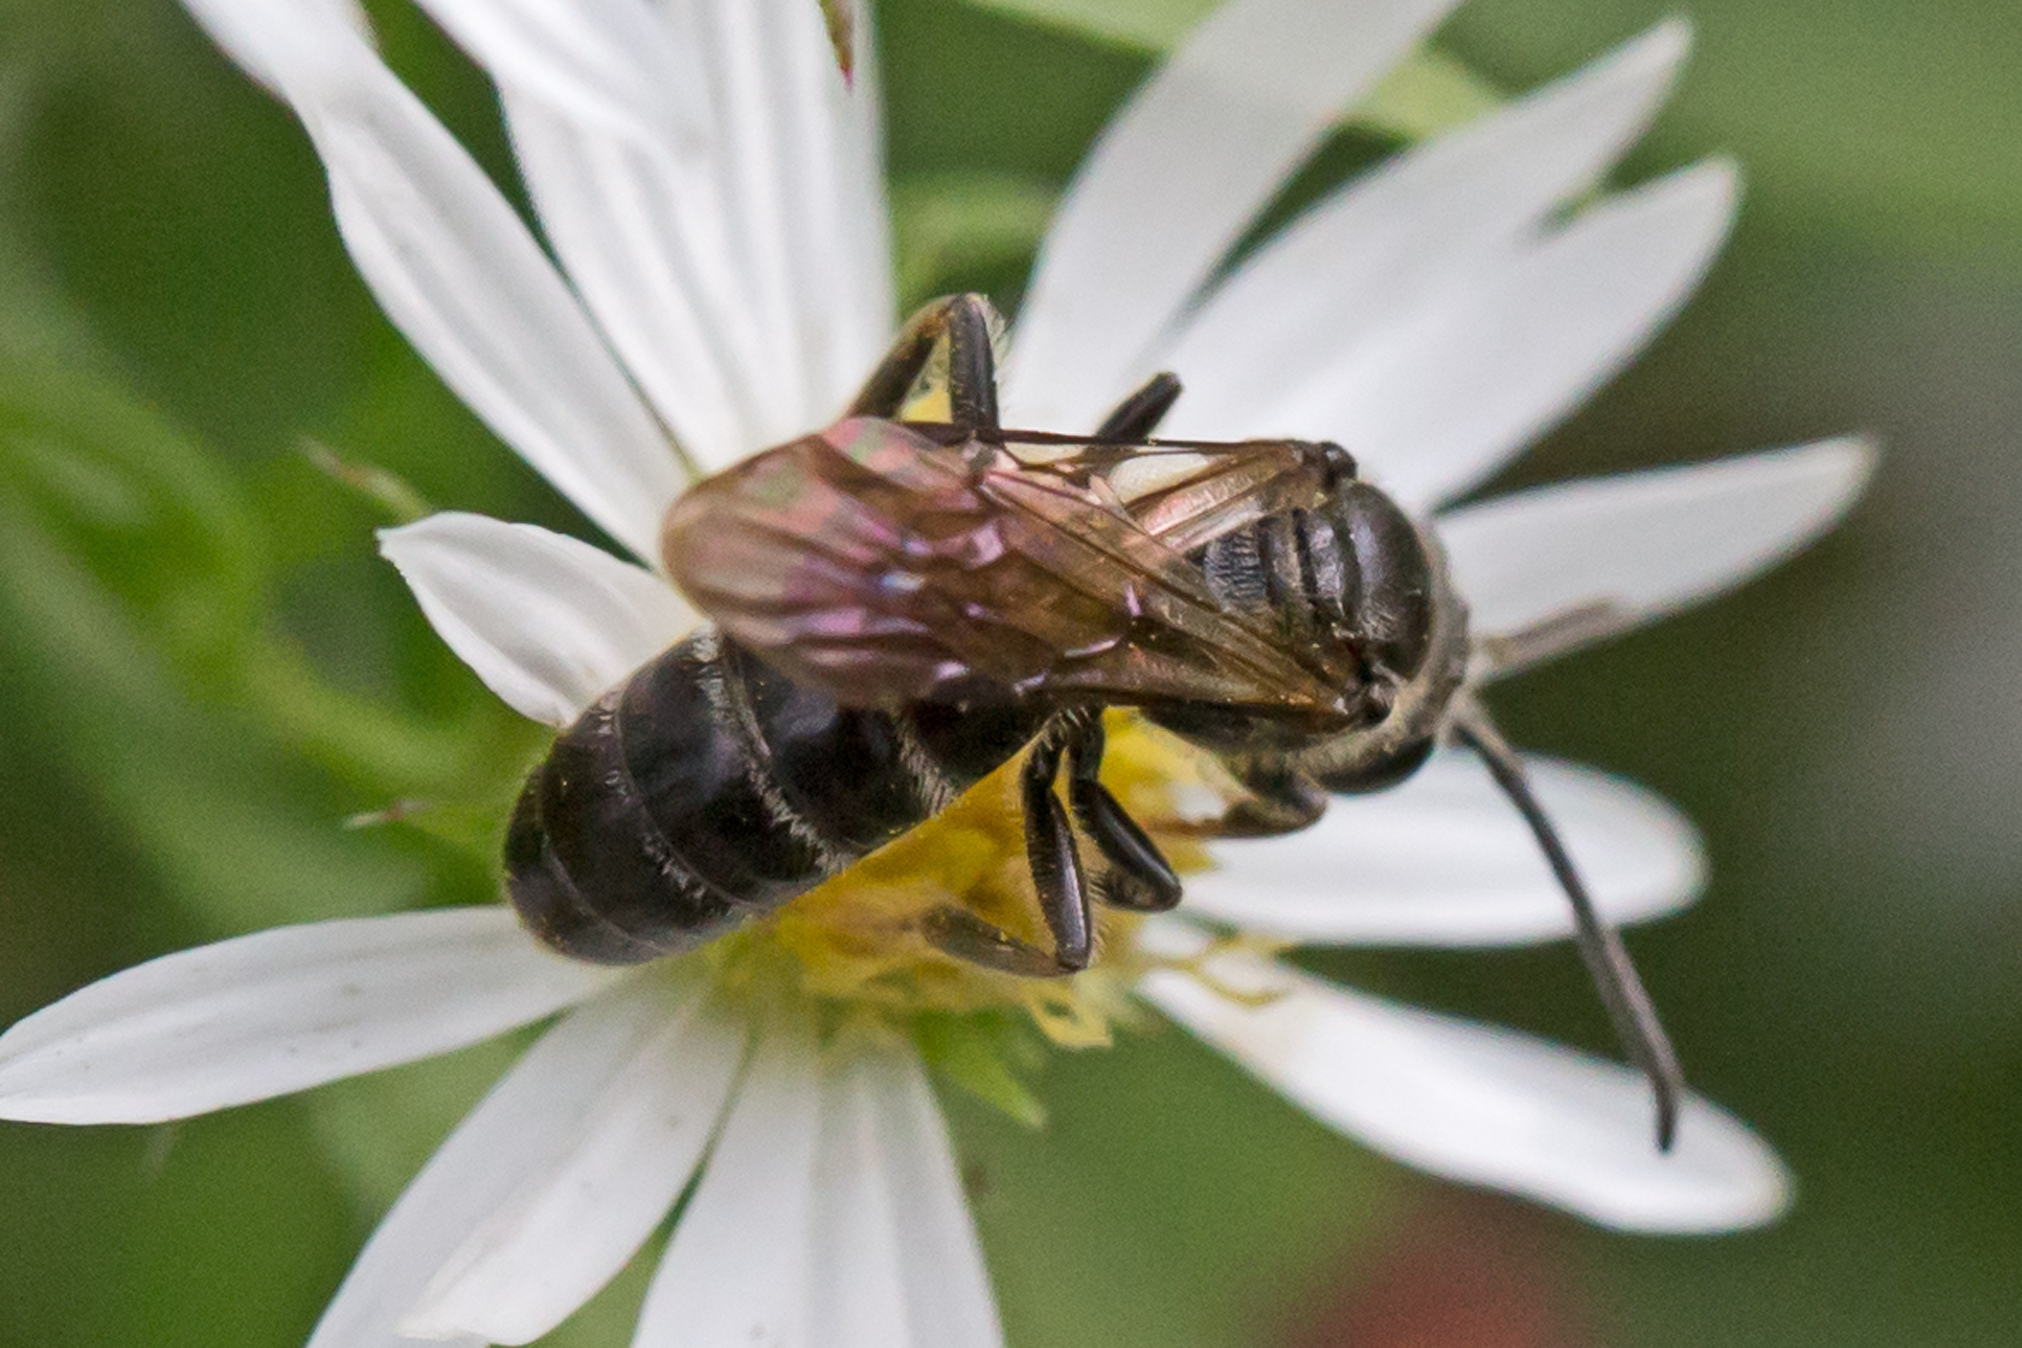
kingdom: Animalia
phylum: Arthropoda
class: Insecta
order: Hymenoptera
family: Halictidae
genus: Lasioglossum
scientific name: Lasioglossum fuscipenne
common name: Brown-winged sweat bee
